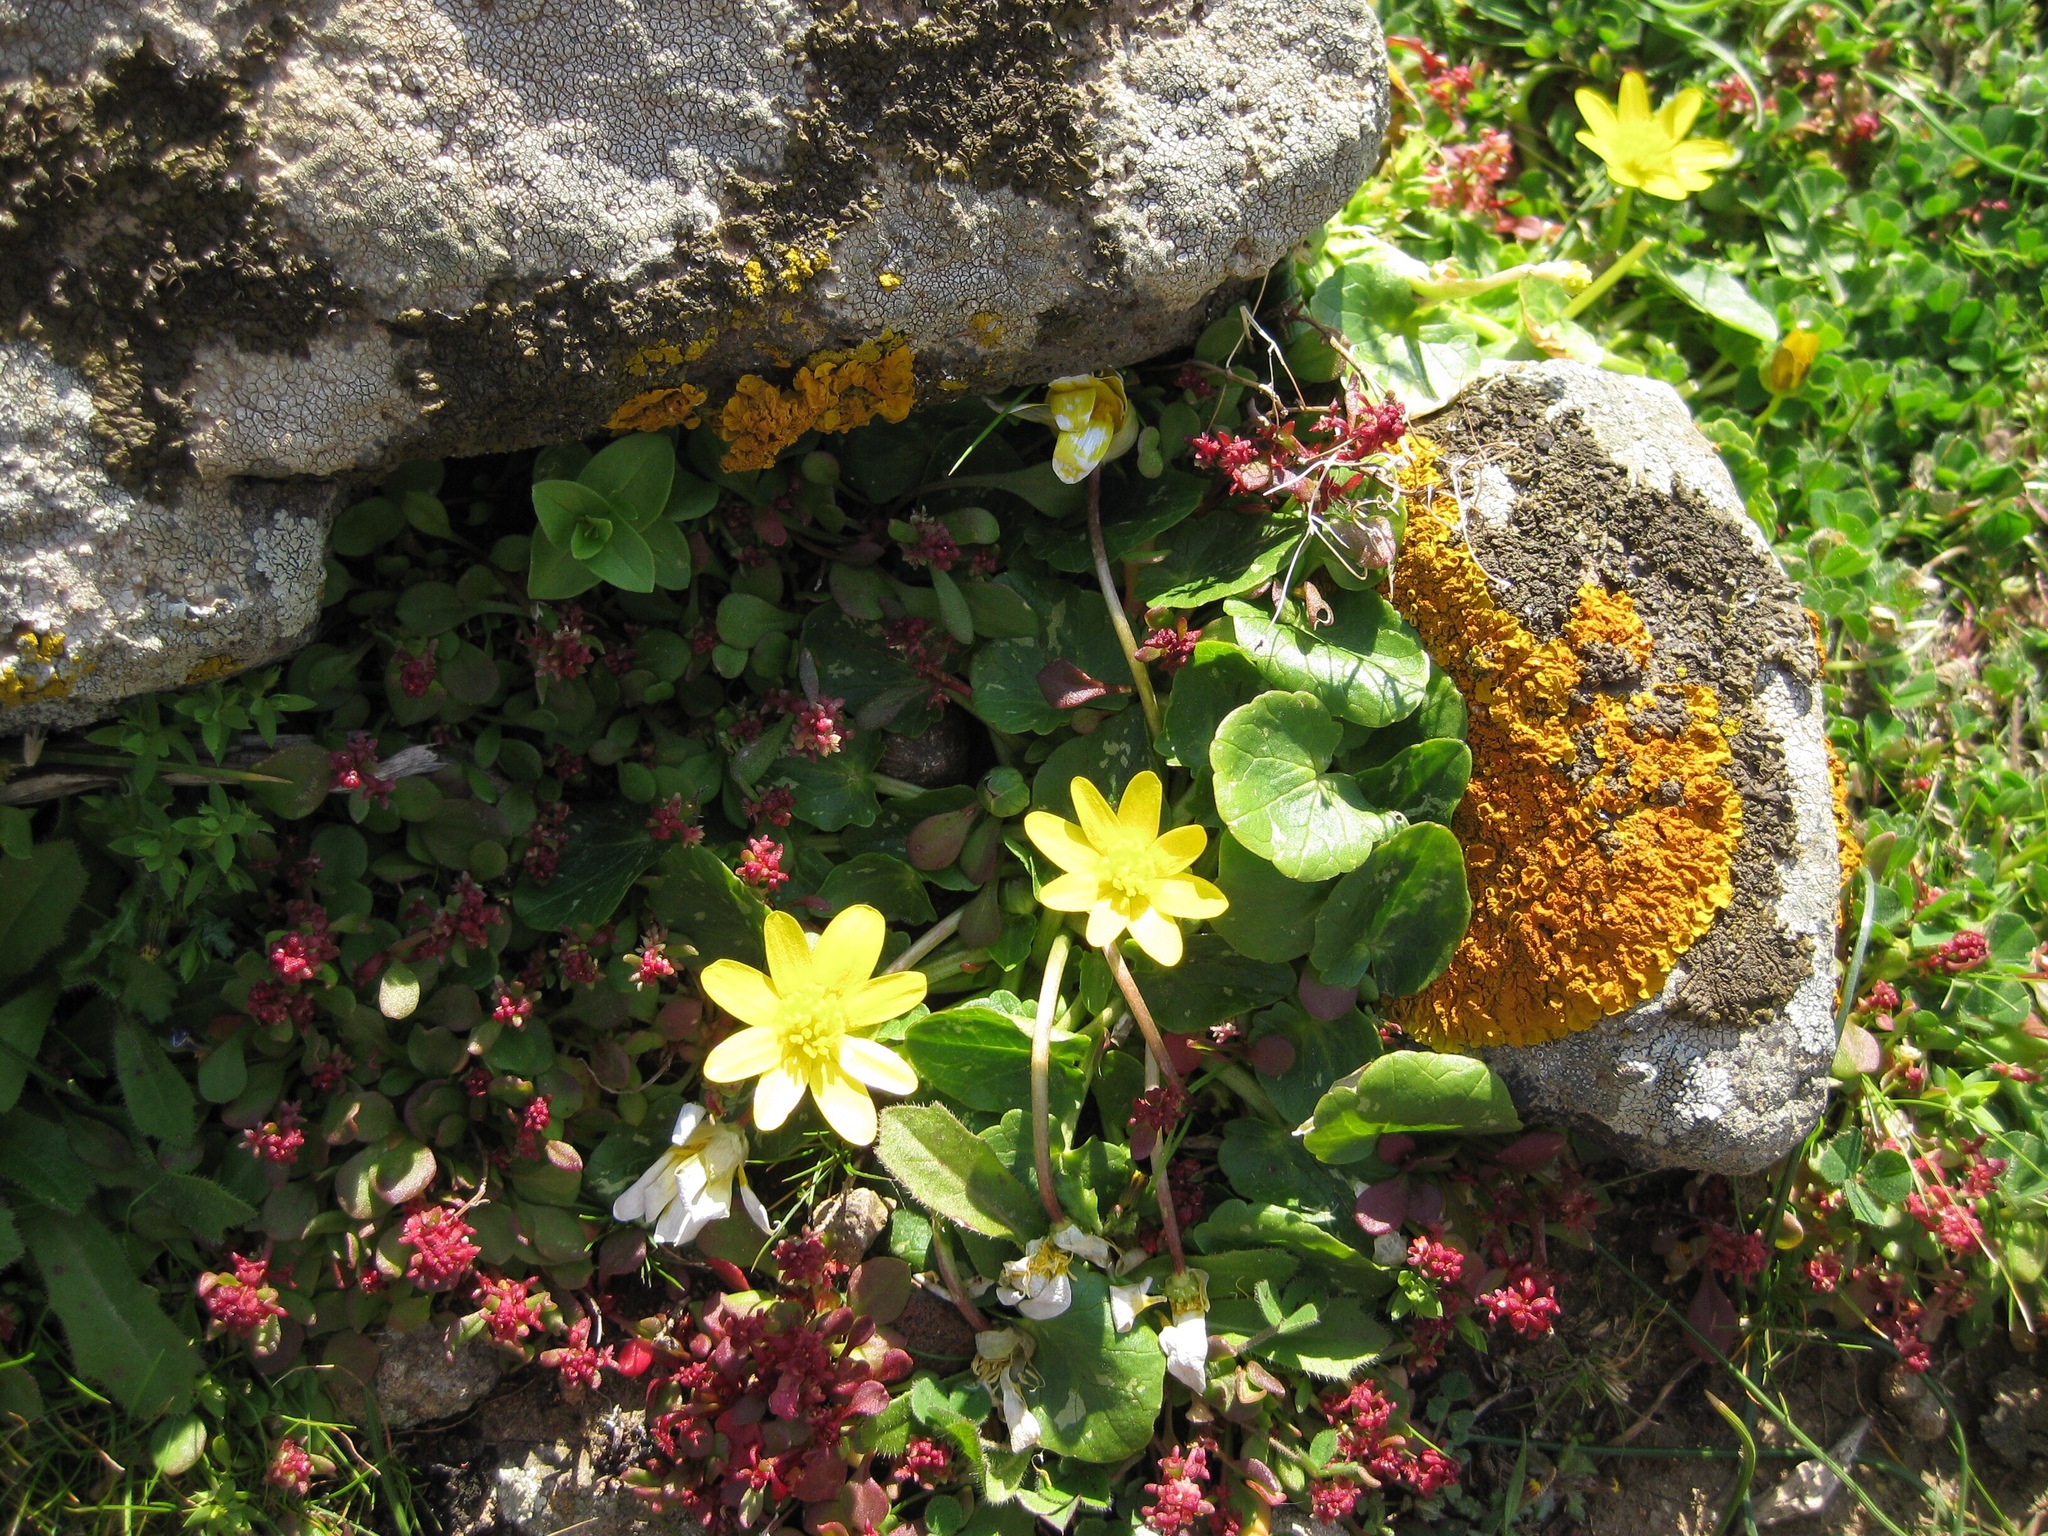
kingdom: Plantae
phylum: Tracheophyta
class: Magnoliopsida
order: Ranunculales
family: Ranunculaceae
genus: Ficaria
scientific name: Ficaria verna
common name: Lesser celandine
